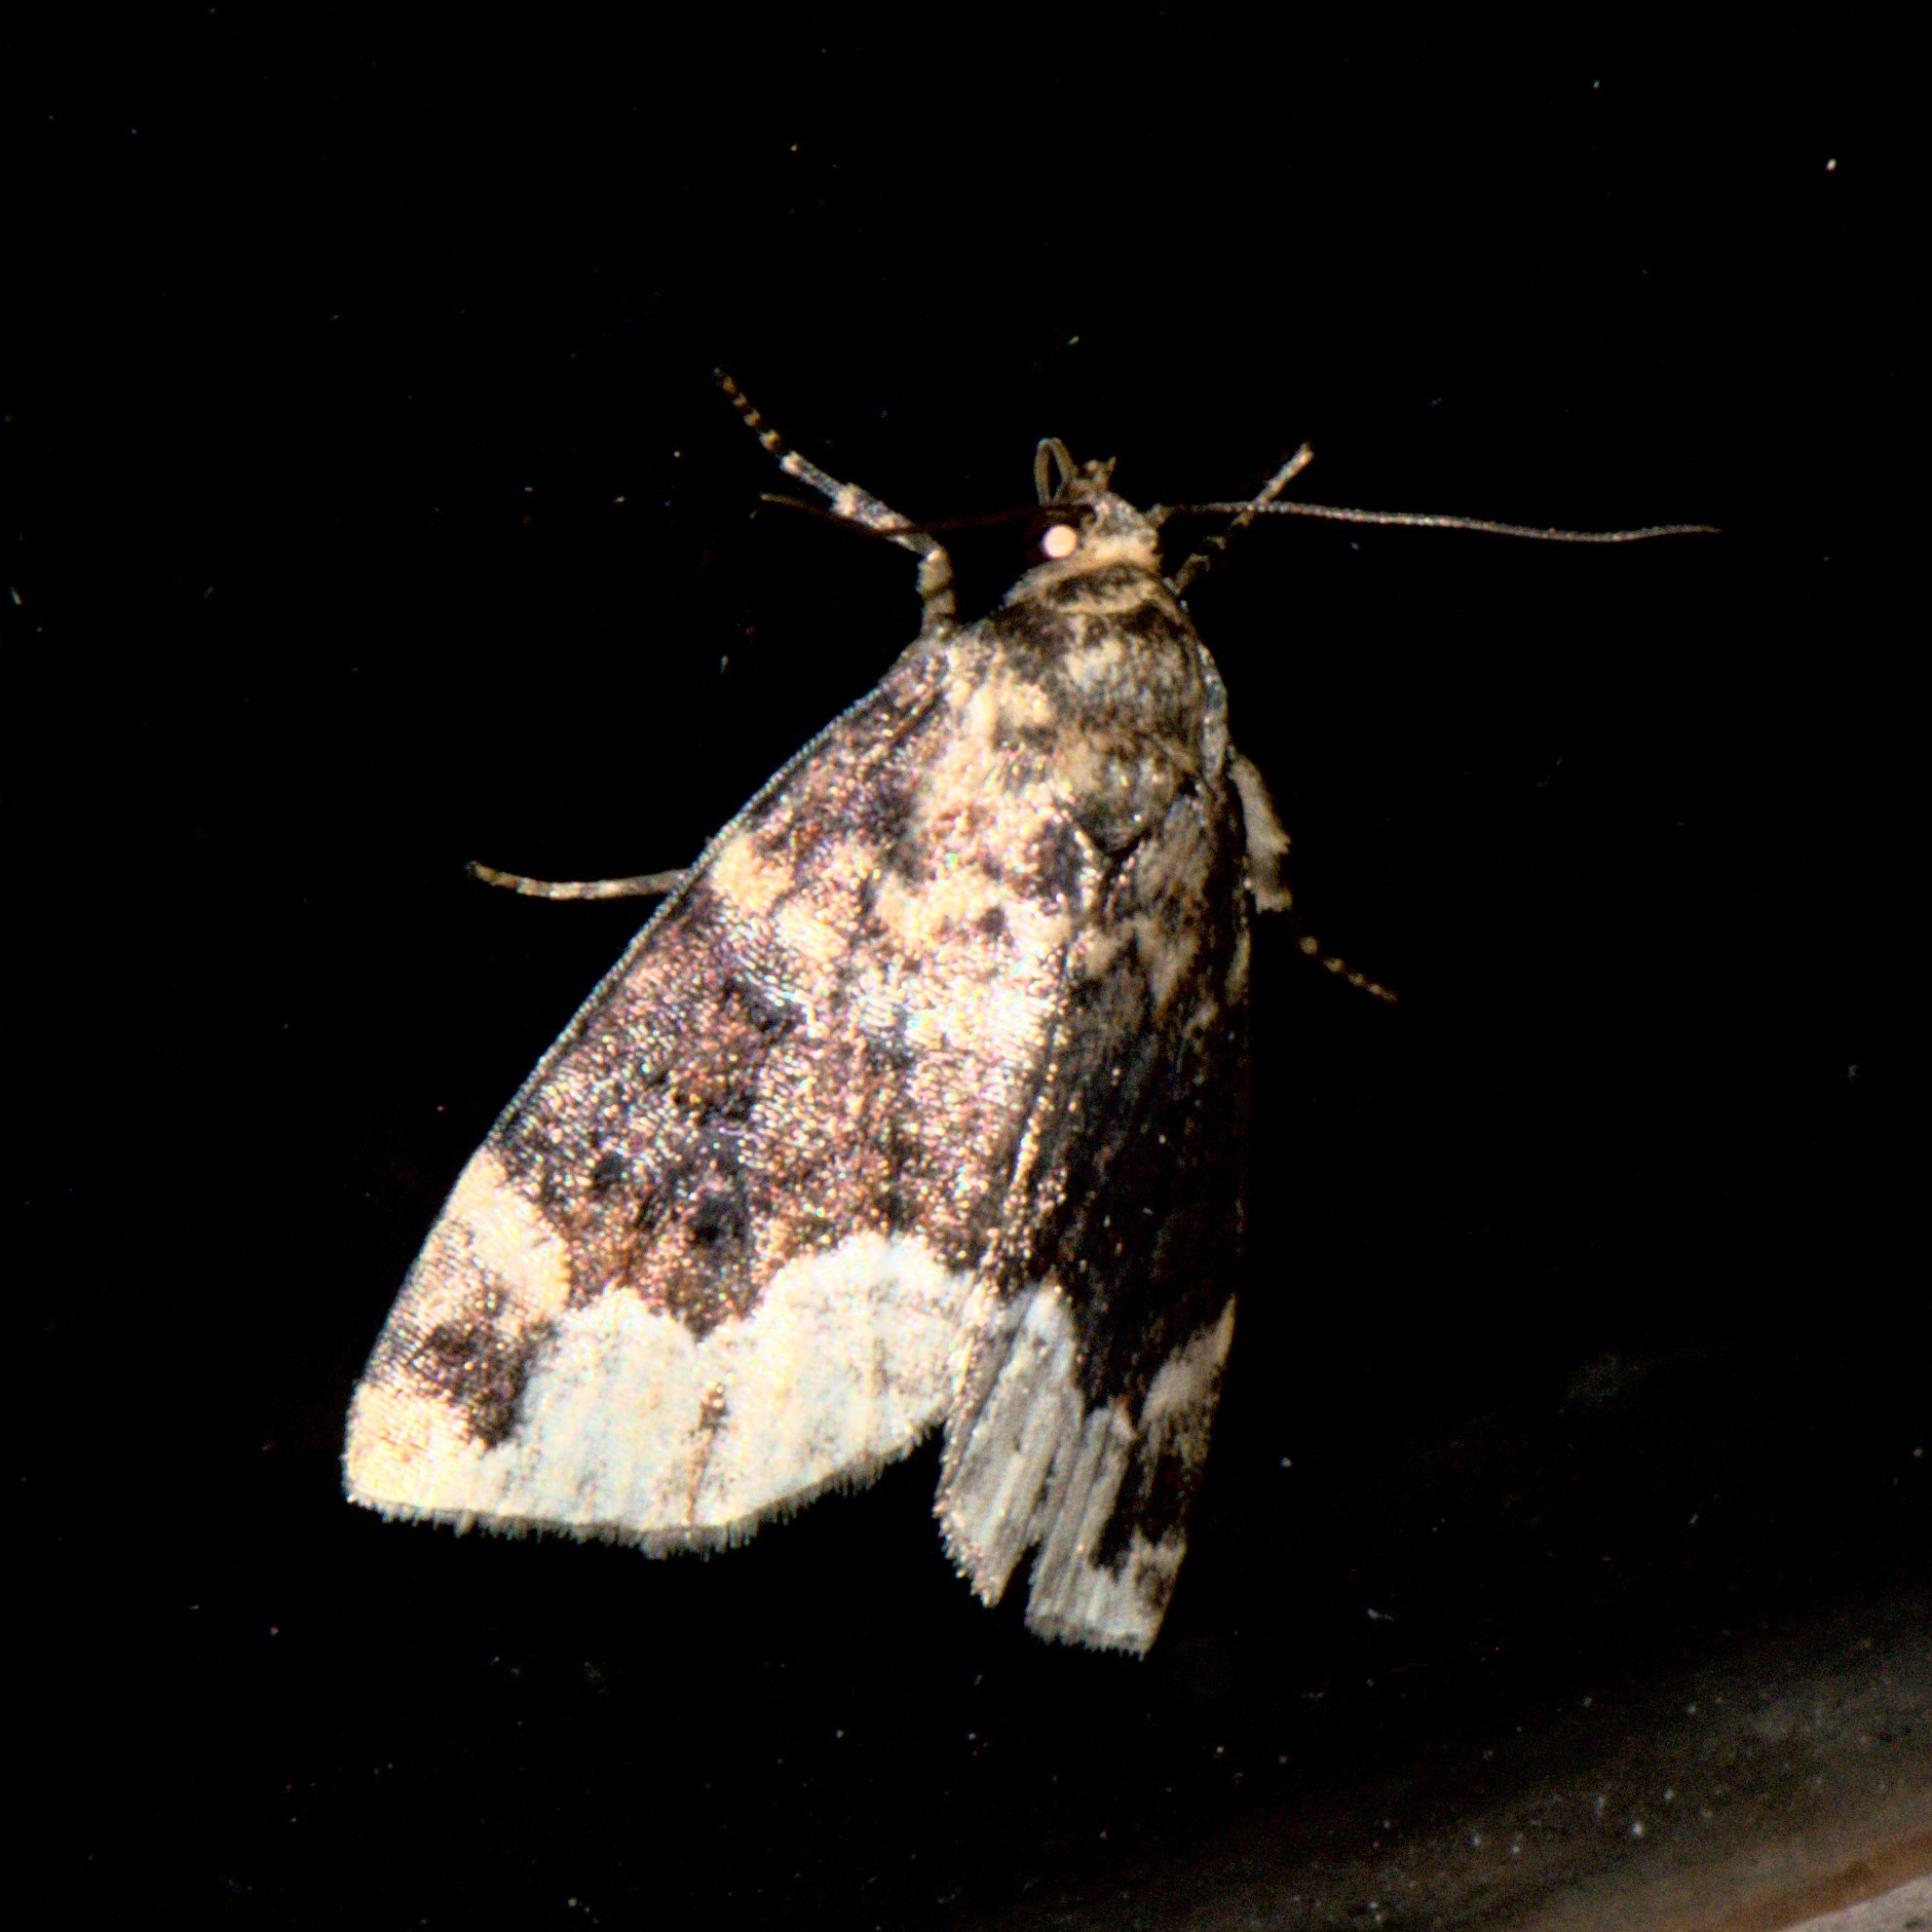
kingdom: Animalia
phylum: Arthropoda
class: Insecta
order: Lepidoptera
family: Erebidae
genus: Koyaga
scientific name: Koyaga
